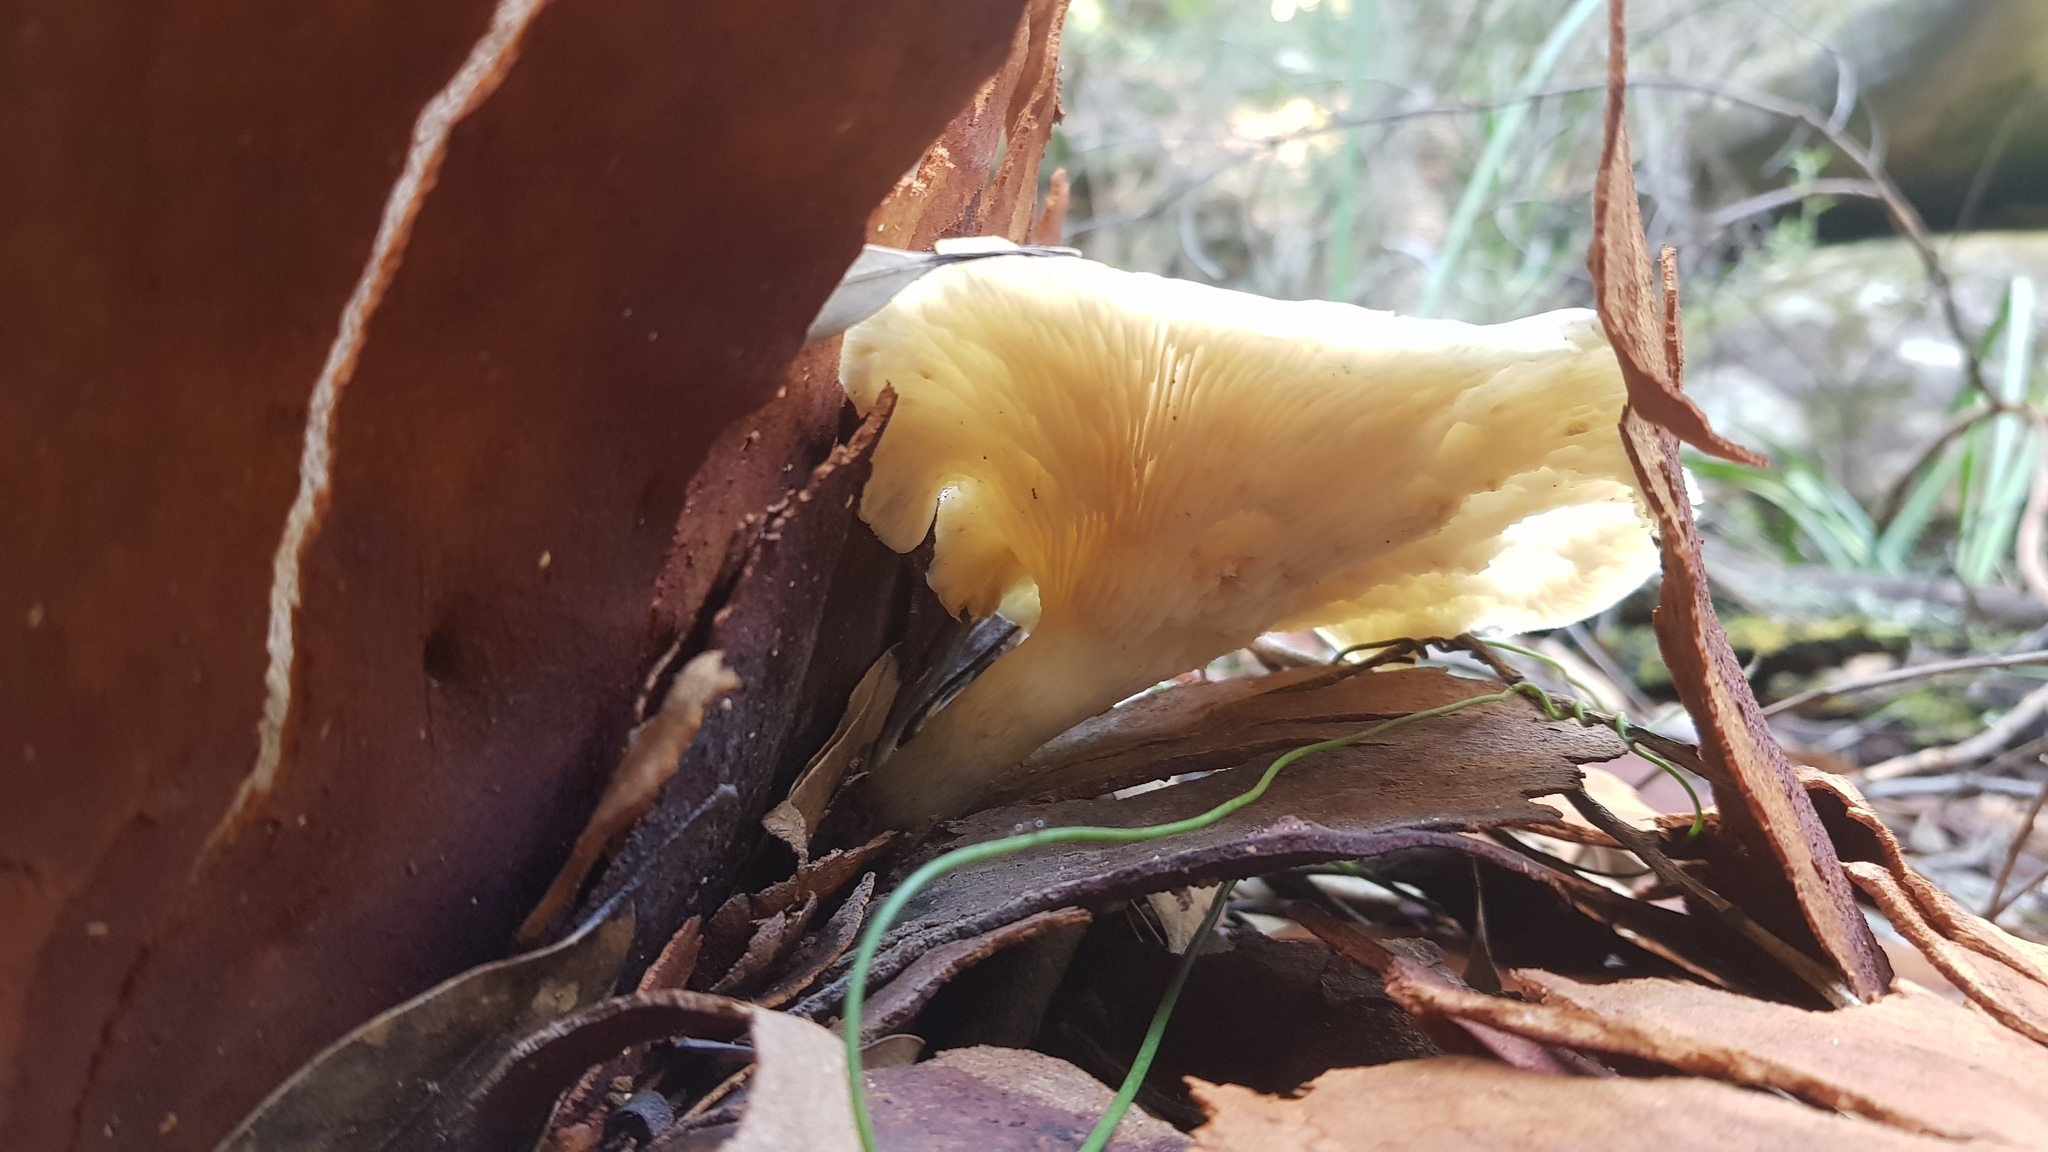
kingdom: Fungi
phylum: Basidiomycota
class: Agaricomycetes
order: Agaricales
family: Omphalotaceae
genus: Omphalotus
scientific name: Omphalotus nidiformis
